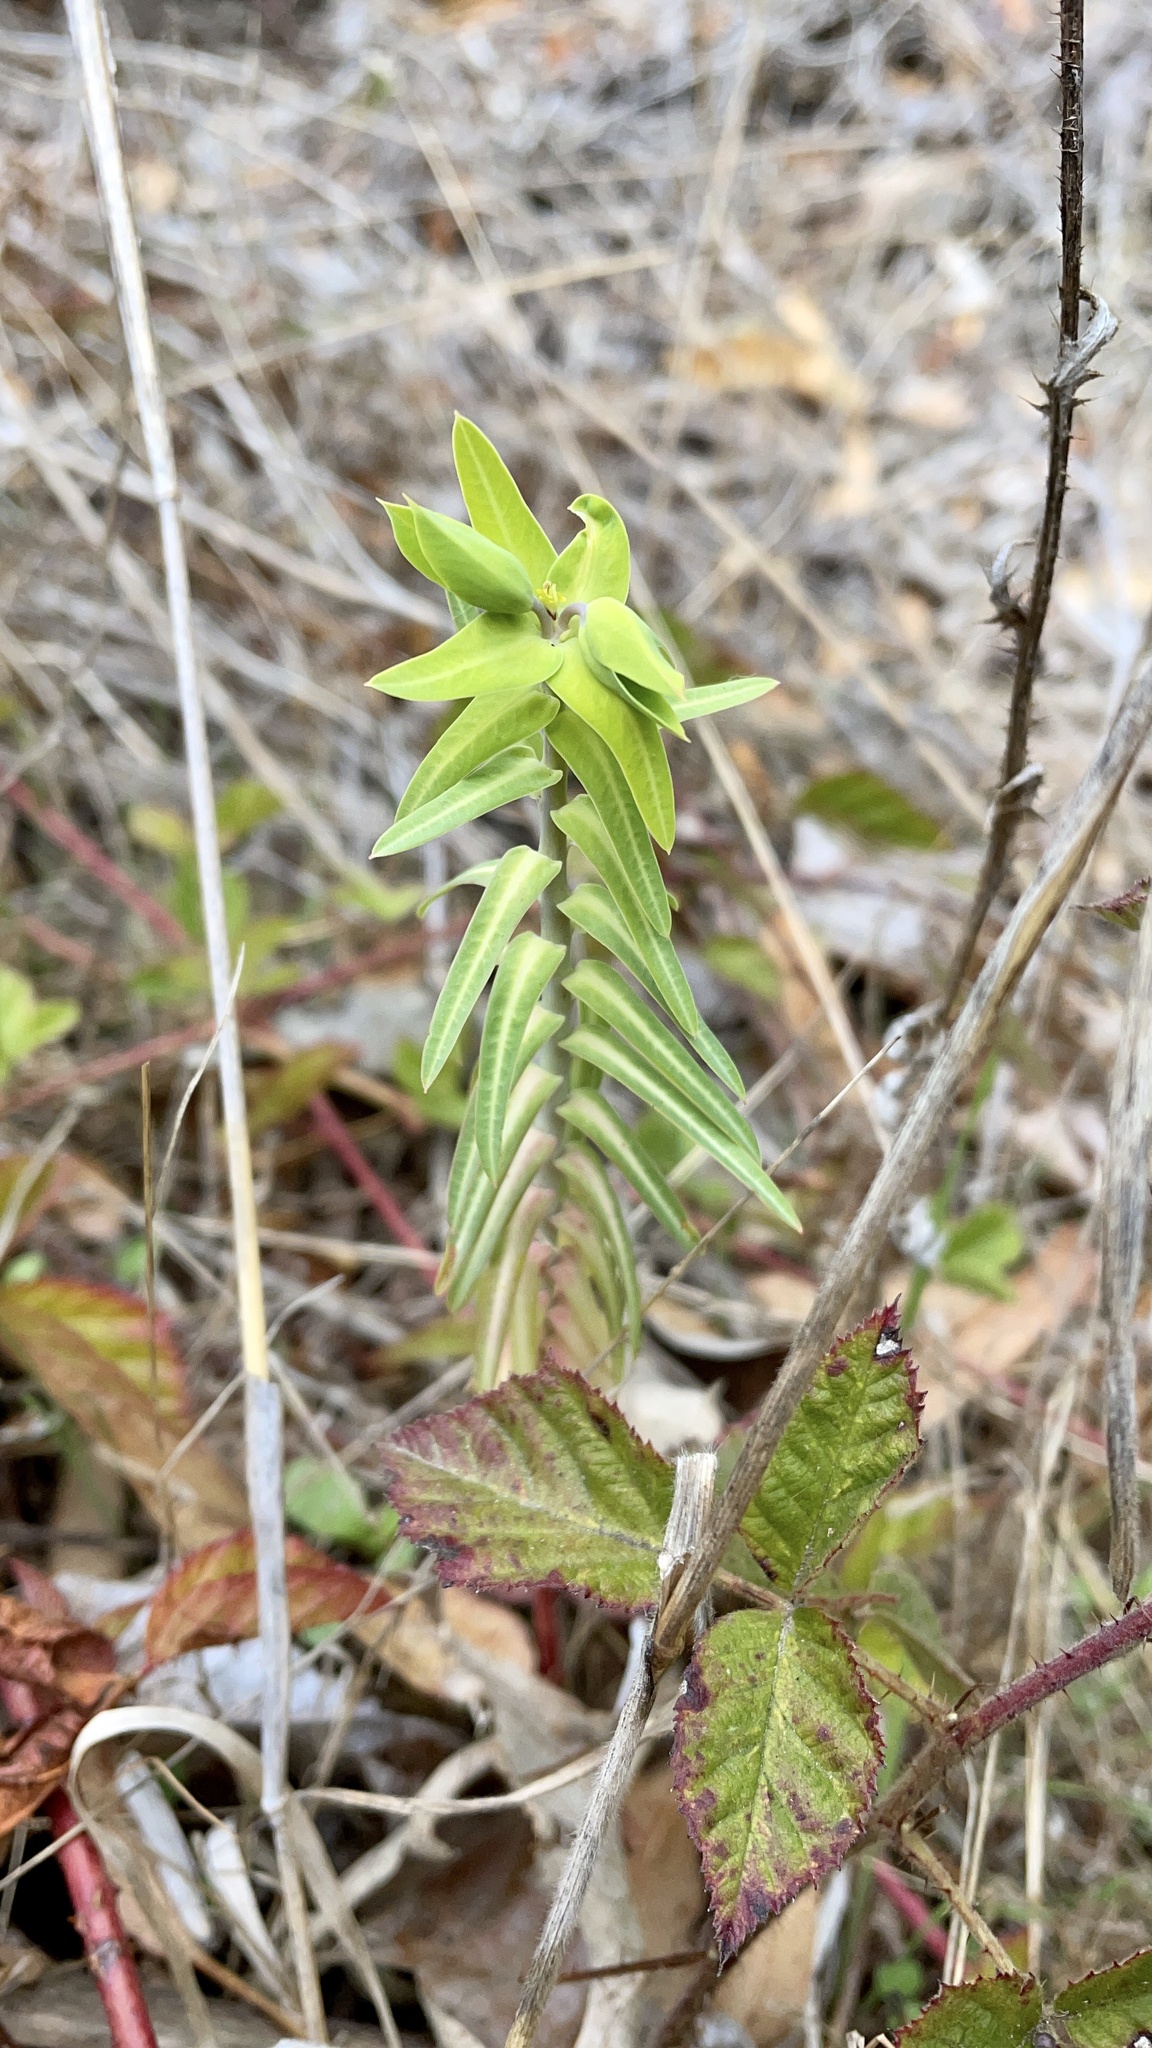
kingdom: Plantae
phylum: Tracheophyta
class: Magnoliopsida
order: Malpighiales
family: Euphorbiaceae
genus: Euphorbia
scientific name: Euphorbia lathyris
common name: Caper spurge
